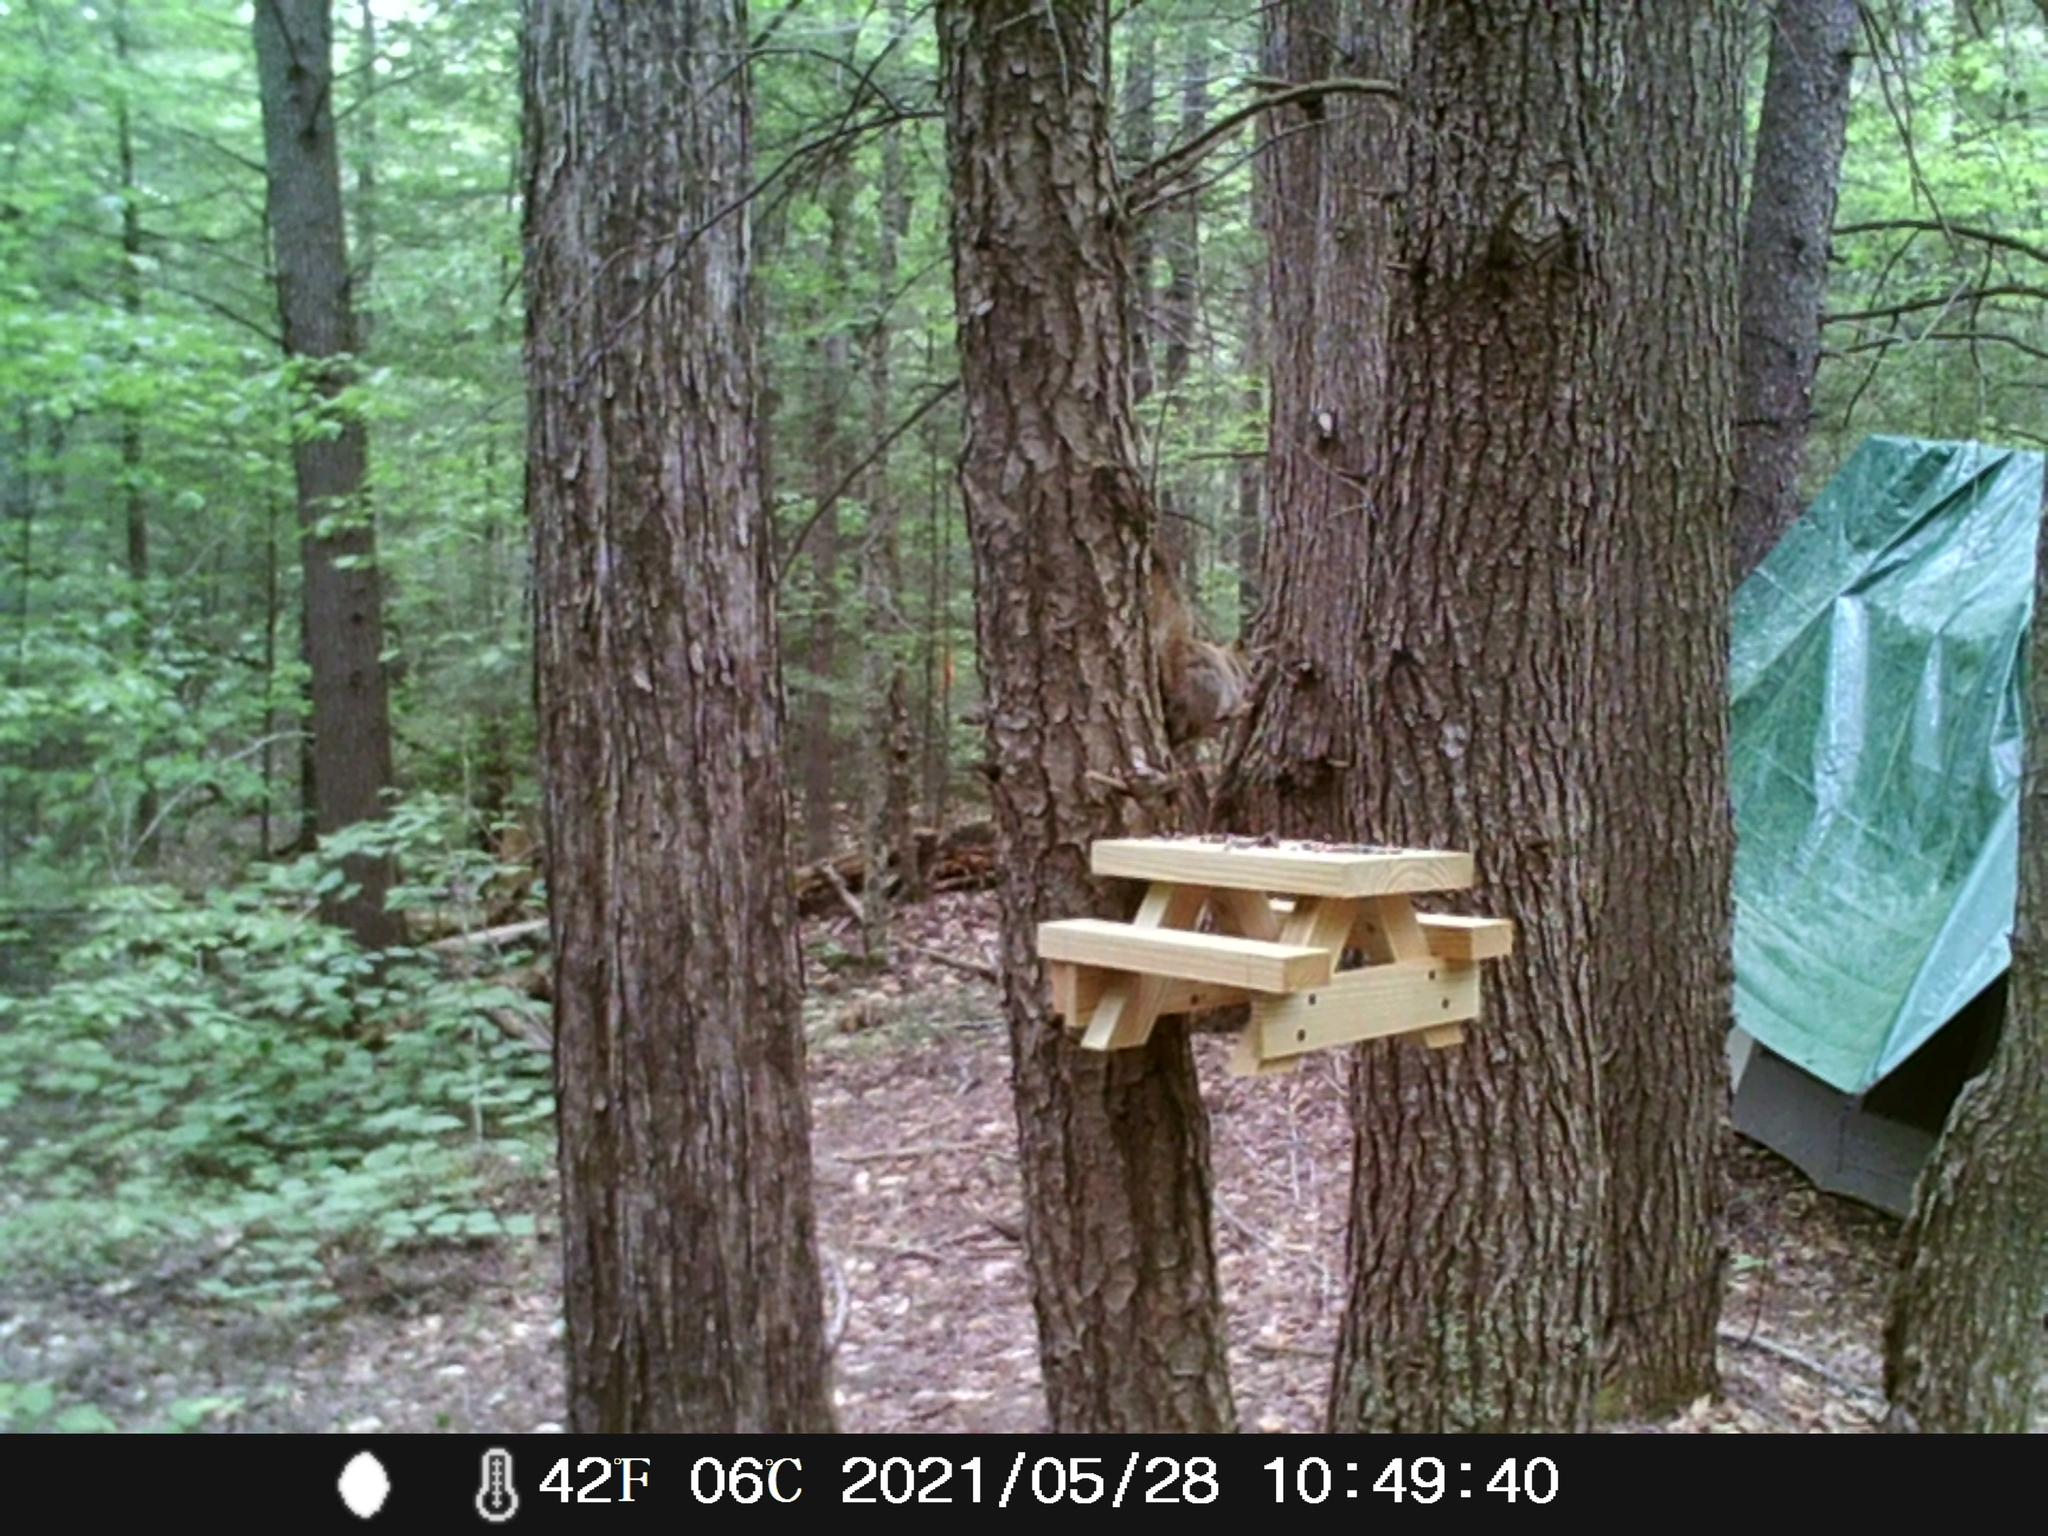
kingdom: Animalia
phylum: Chordata
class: Mammalia
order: Rodentia
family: Sciuridae
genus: Tamiasciurus
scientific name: Tamiasciurus hudsonicus
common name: Red squirrel
